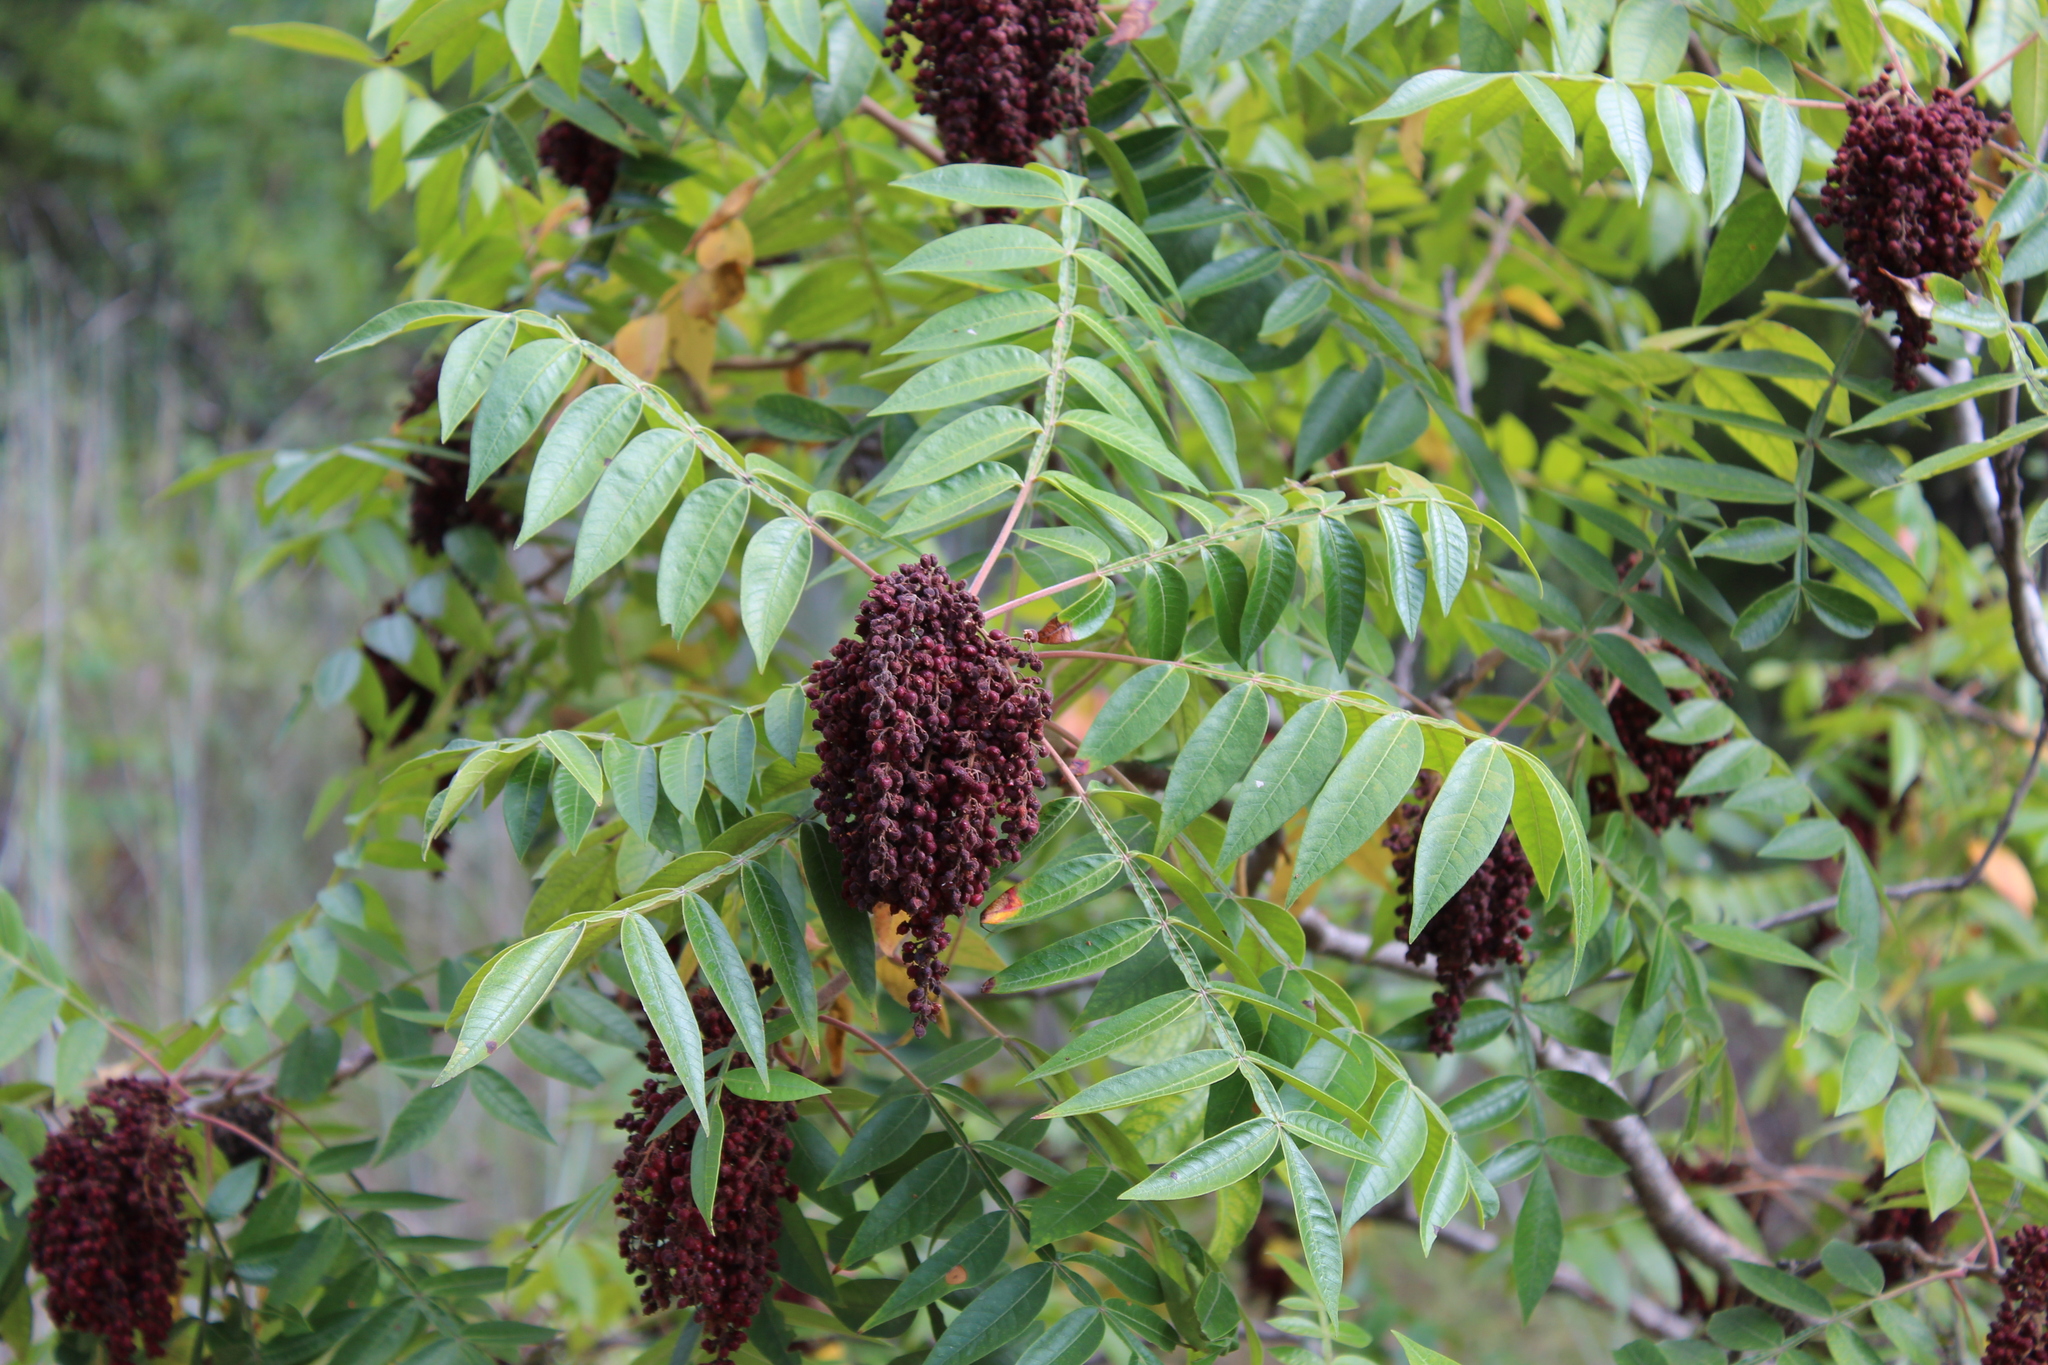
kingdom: Plantae
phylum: Tracheophyta
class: Magnoliopsida
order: Sapindales
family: Anacardiaceae
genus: Rhus
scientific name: Rhus copallina
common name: Shining sumac
